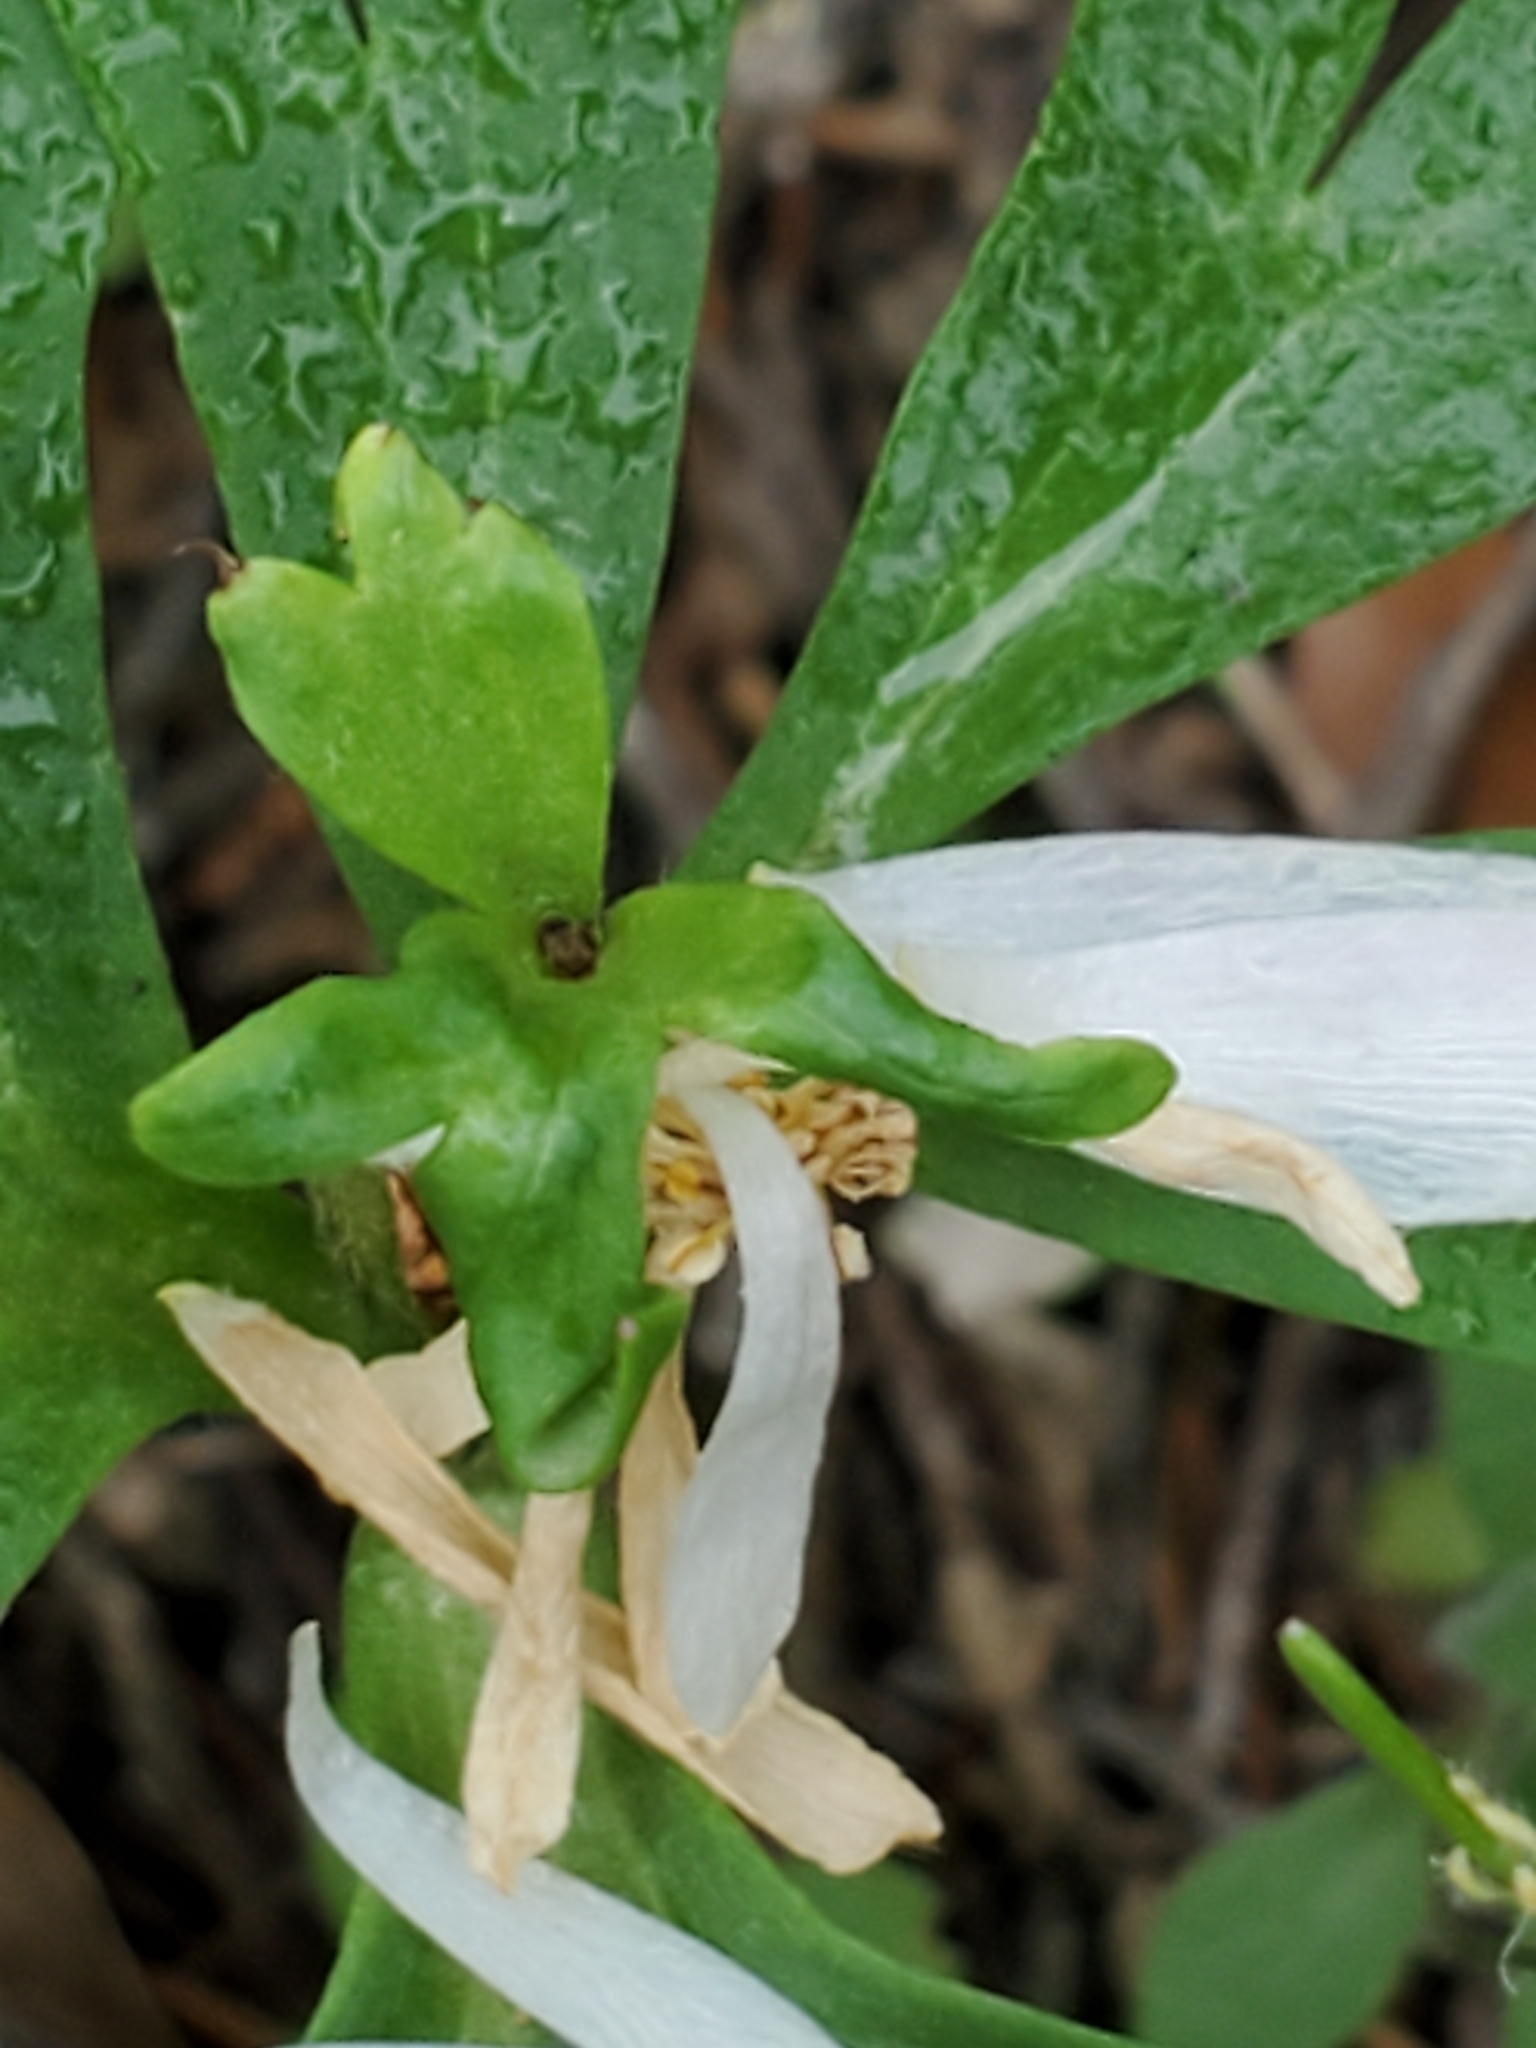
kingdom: Plantae
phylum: Tracheophyta
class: Magnoliopsida
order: Ranunculales
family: Ranunculaceae
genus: Anemone
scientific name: Anemone edwardsiana
